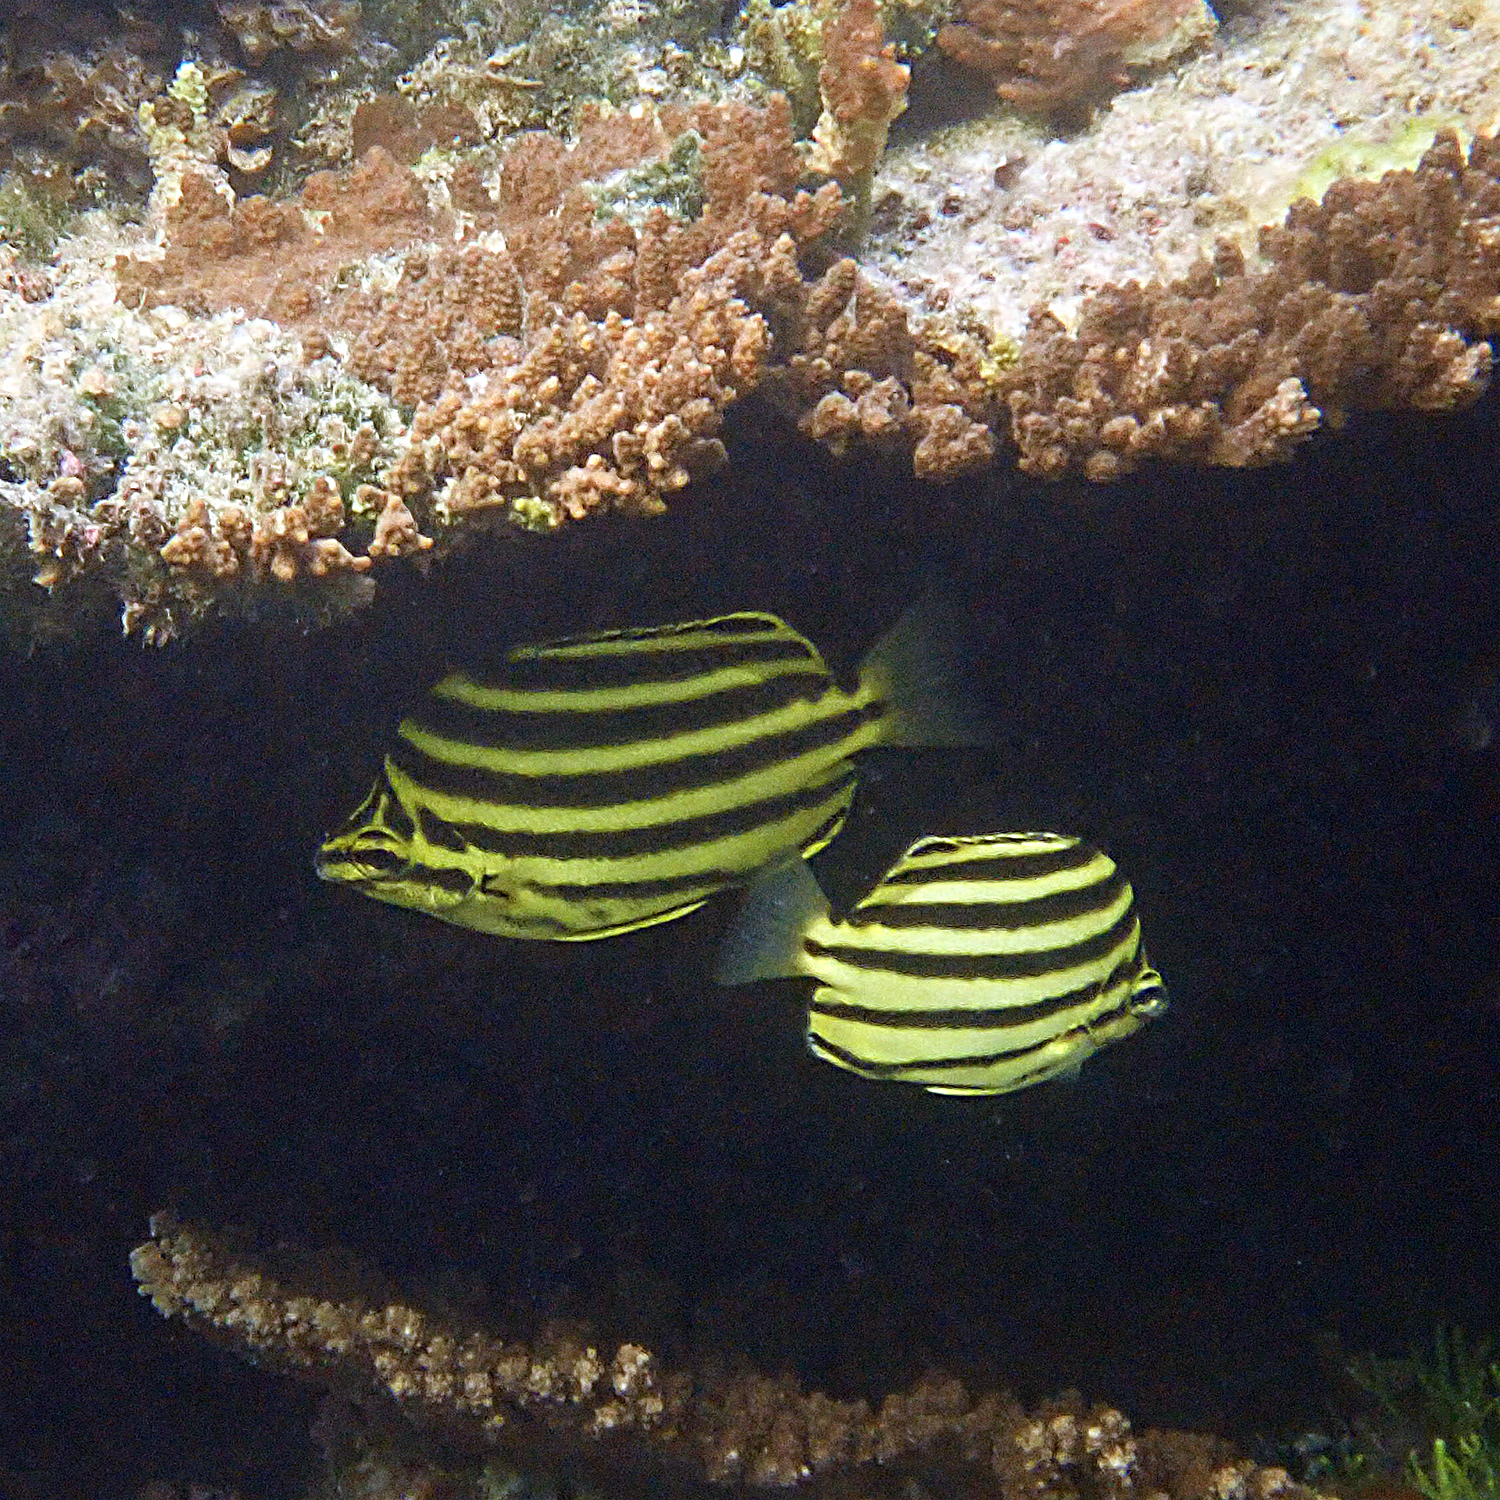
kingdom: Animalia
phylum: Chordata
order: Perciformes
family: Kyphosidae
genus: Microcanthus
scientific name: Microcanthus joyceae
